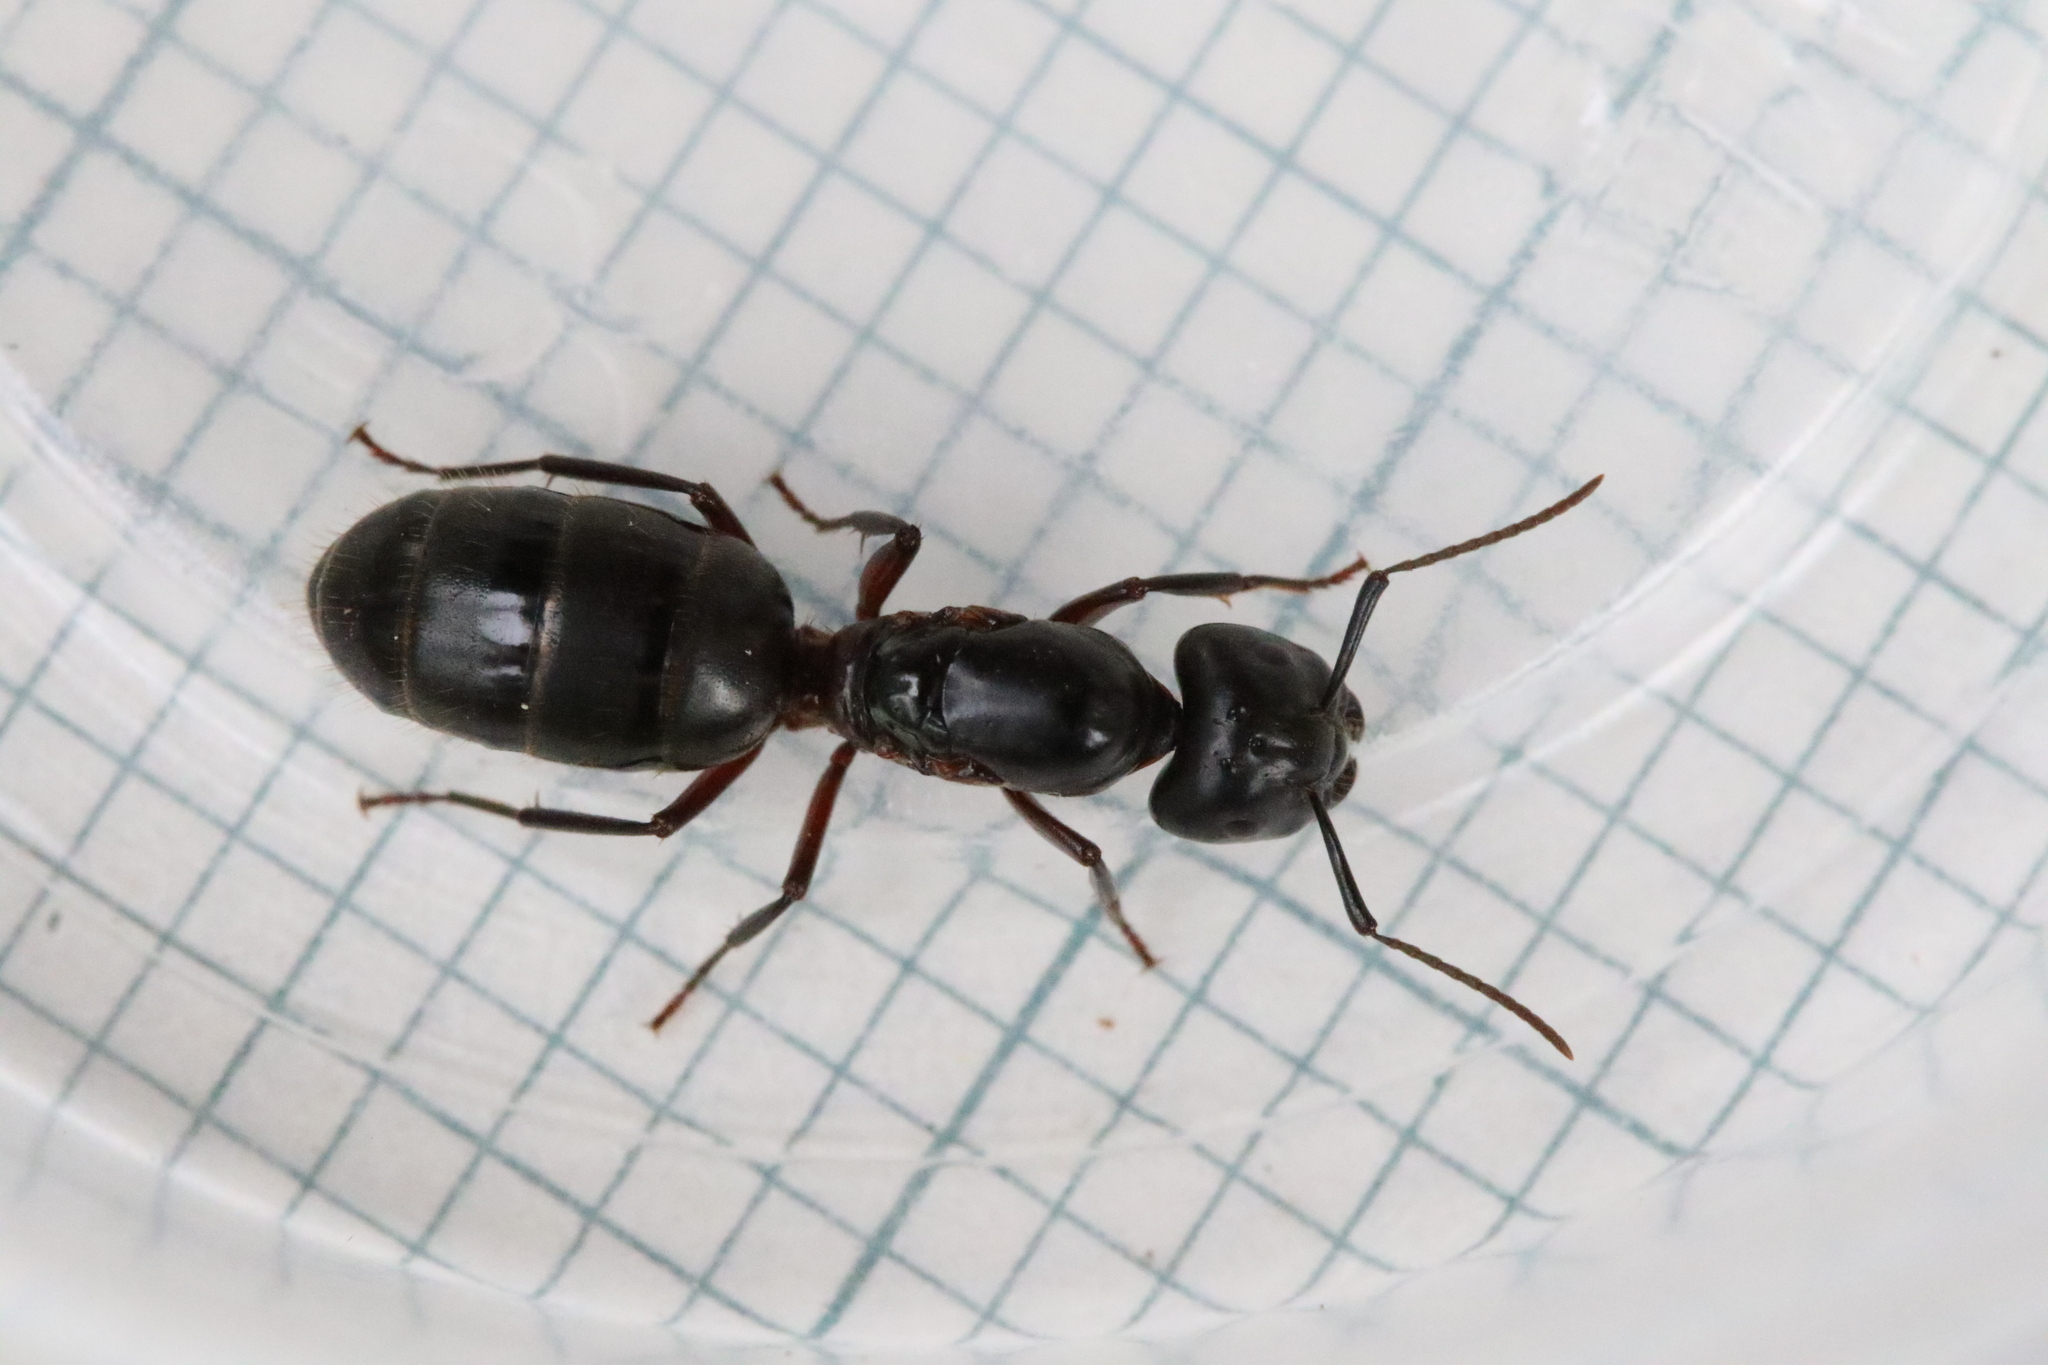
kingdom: Animalia
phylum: Arthropoda
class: Insecta
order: Hymenoptera
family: Formicidae
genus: Camponotus
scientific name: Camponotus herculeanus
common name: Hercules ant
